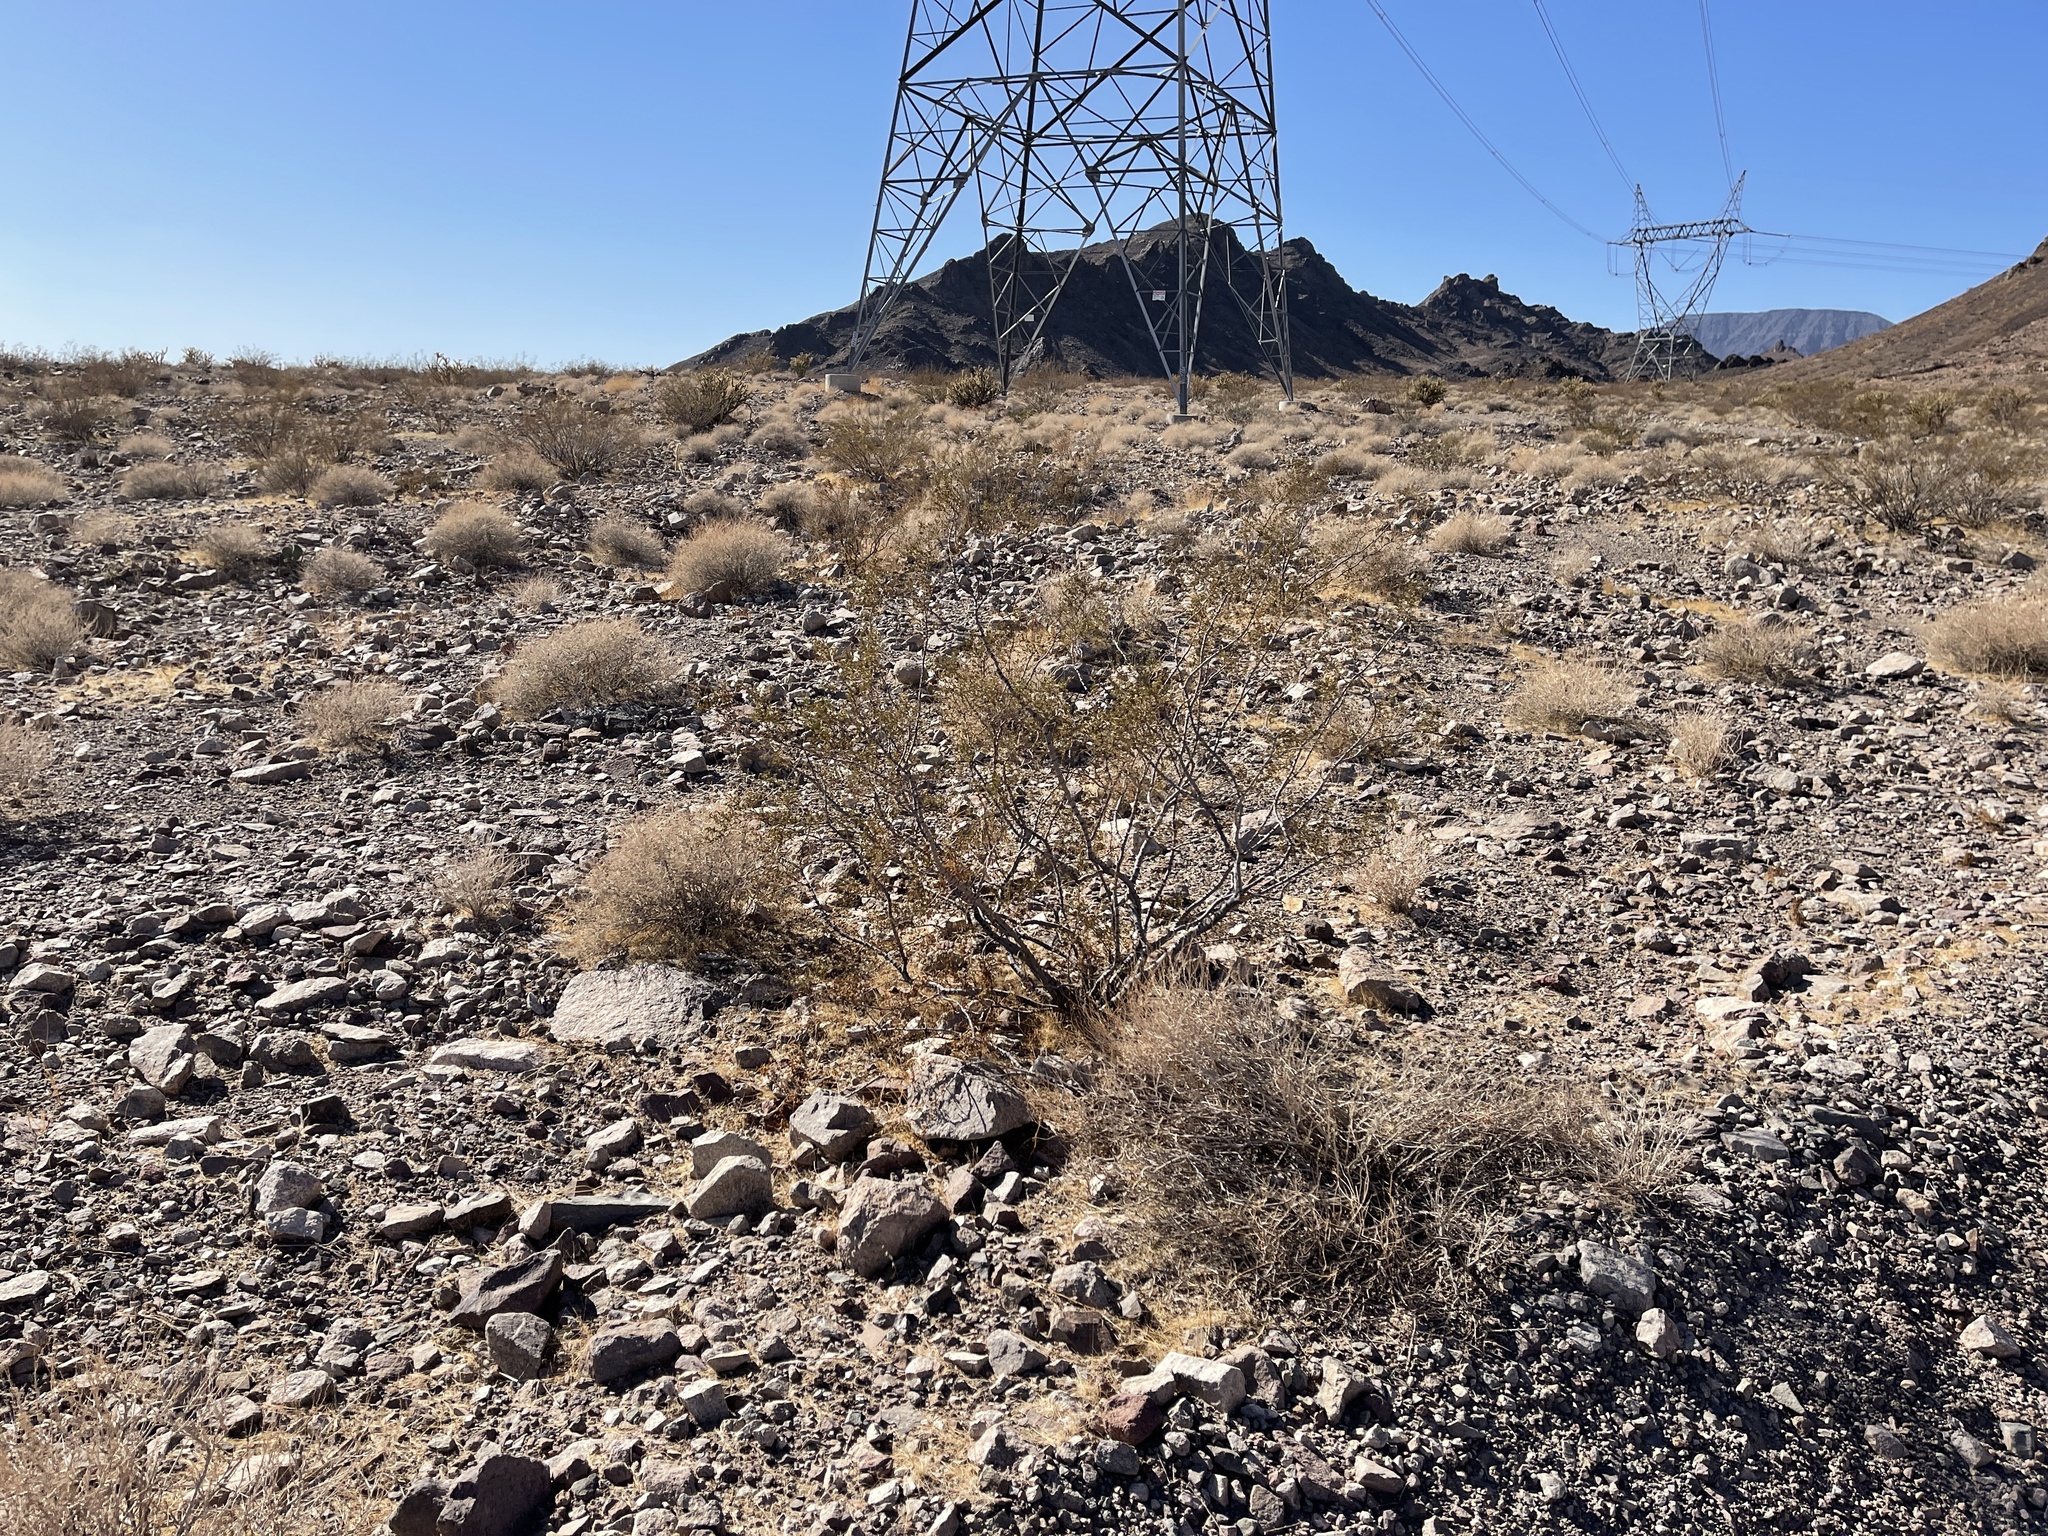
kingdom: Plantae
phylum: Tracheophyta
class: Magnoliopsida
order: Zygophyllales
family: Zygophyllaceae
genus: Larrea
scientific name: Larrea tridentata
